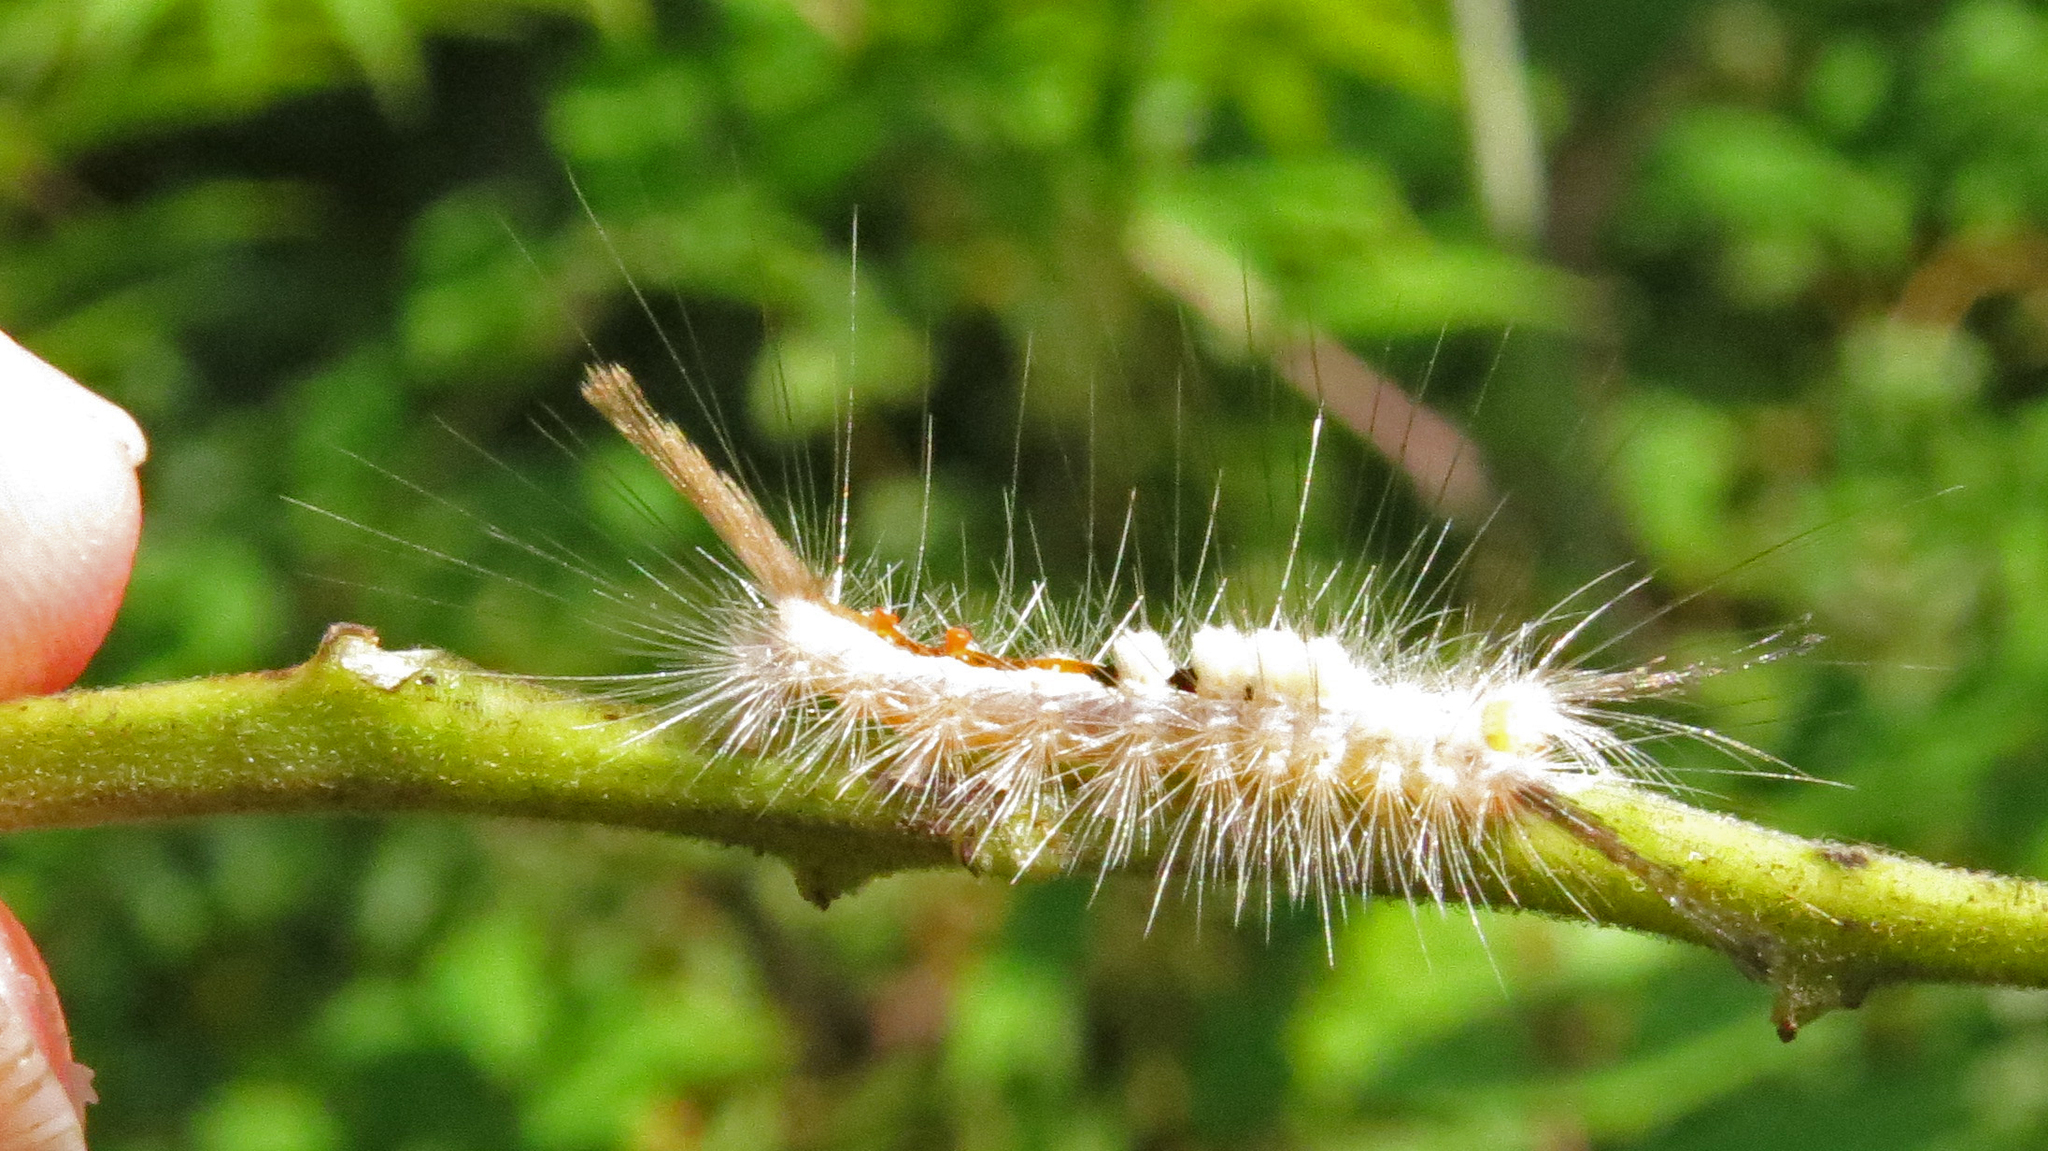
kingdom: Animalia
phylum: Arthropoda
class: Insecta
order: Lepidoptera
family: Erebidae
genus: Orgyia
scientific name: Orgyia leucostigma
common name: White-marked tussock moth
